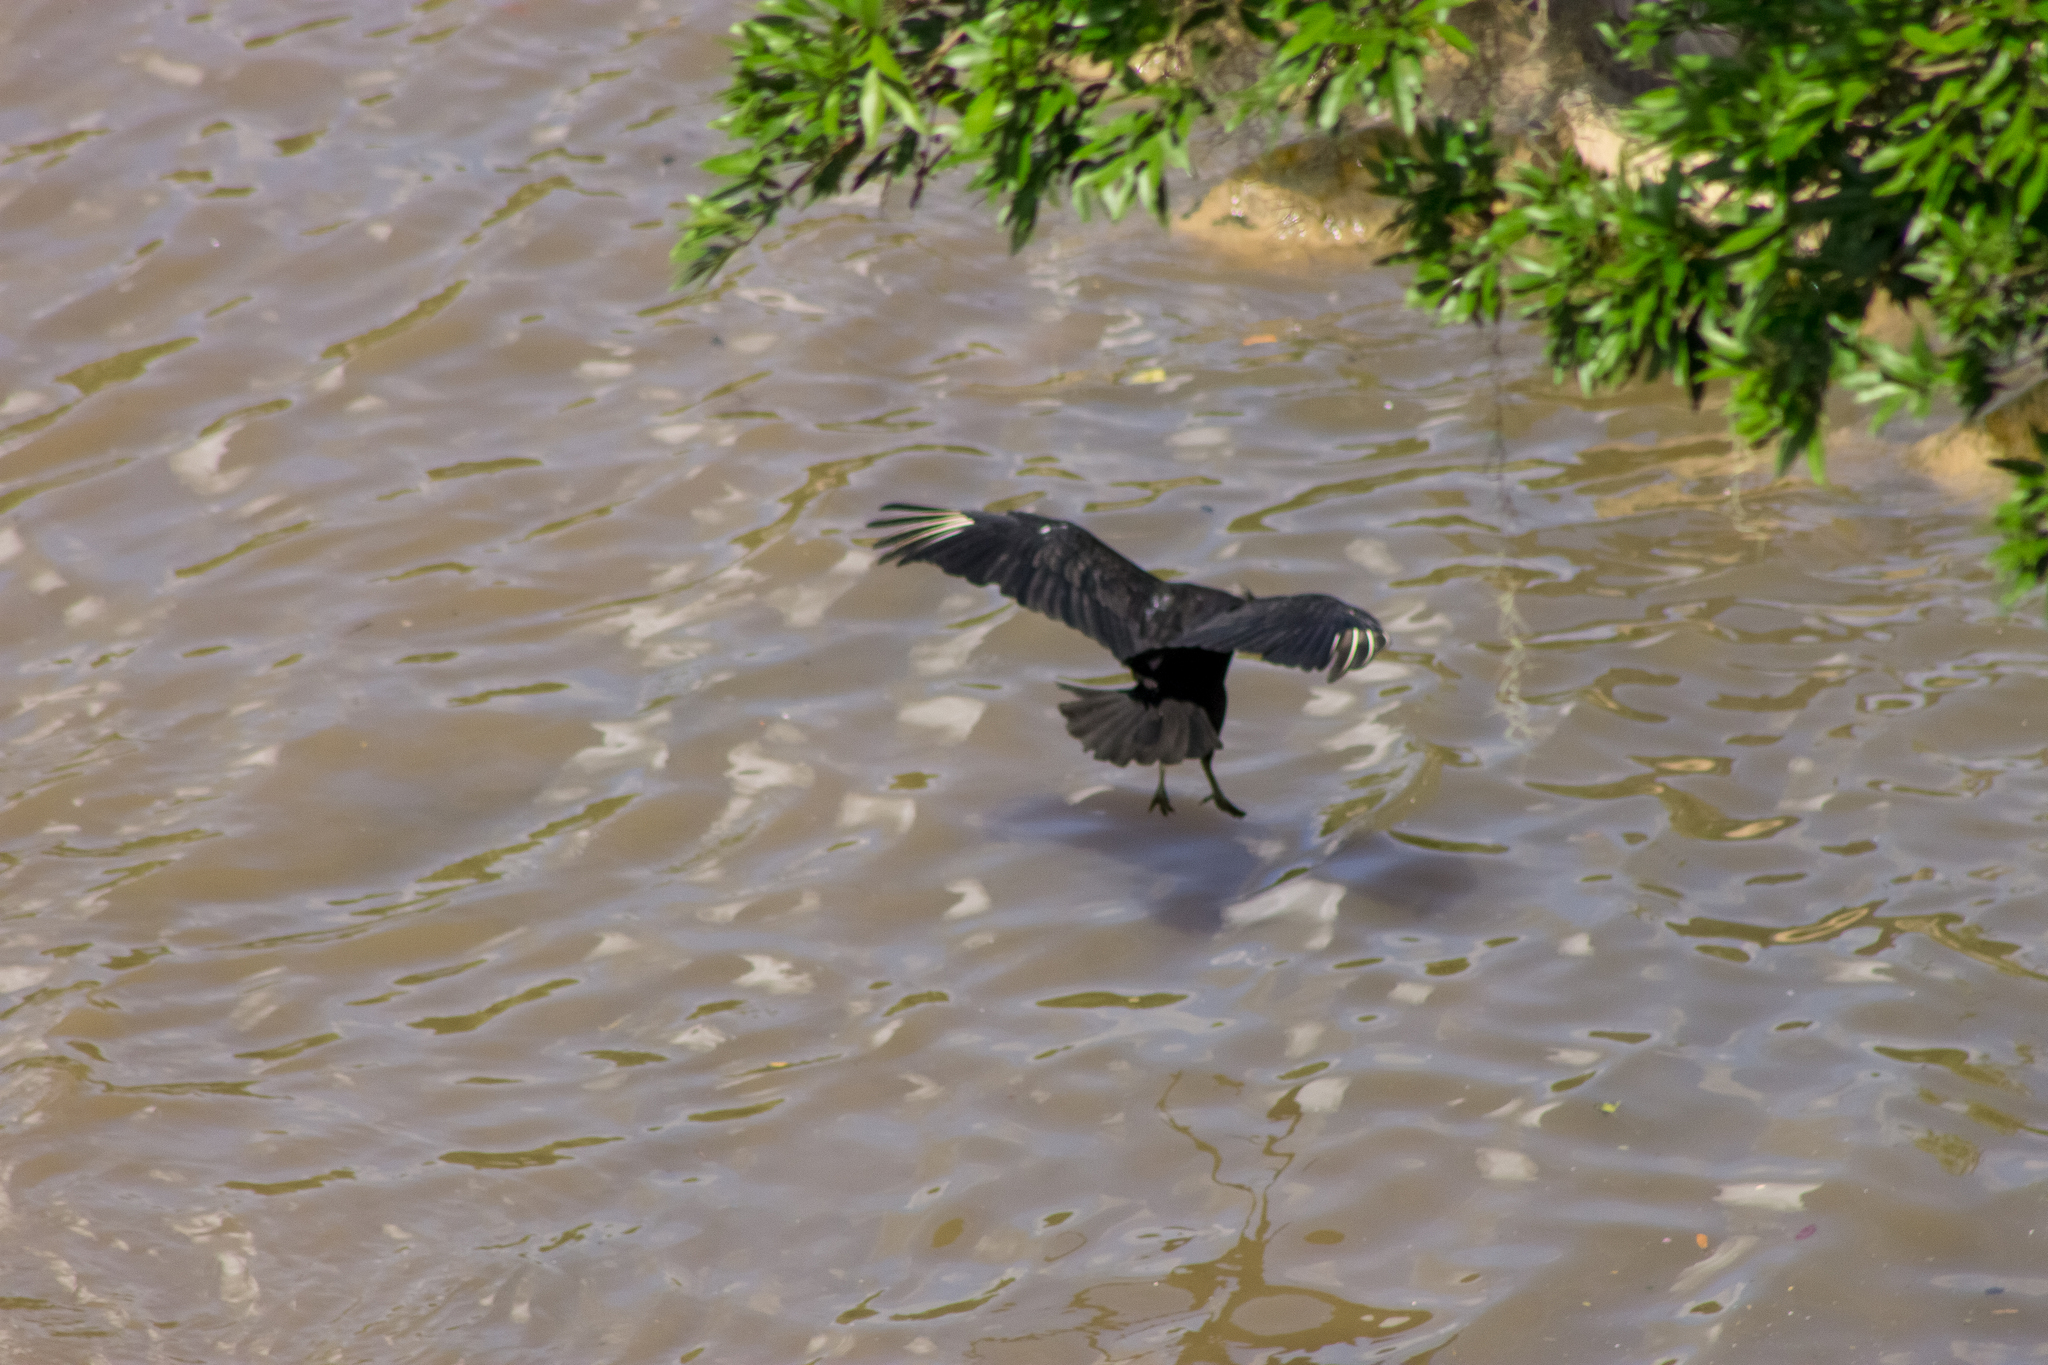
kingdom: Animalia
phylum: Chordata
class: Aves
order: Accipitriformes
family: Cathartidae
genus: Coragyps
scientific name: Coragyps atratus
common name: Black vulture
